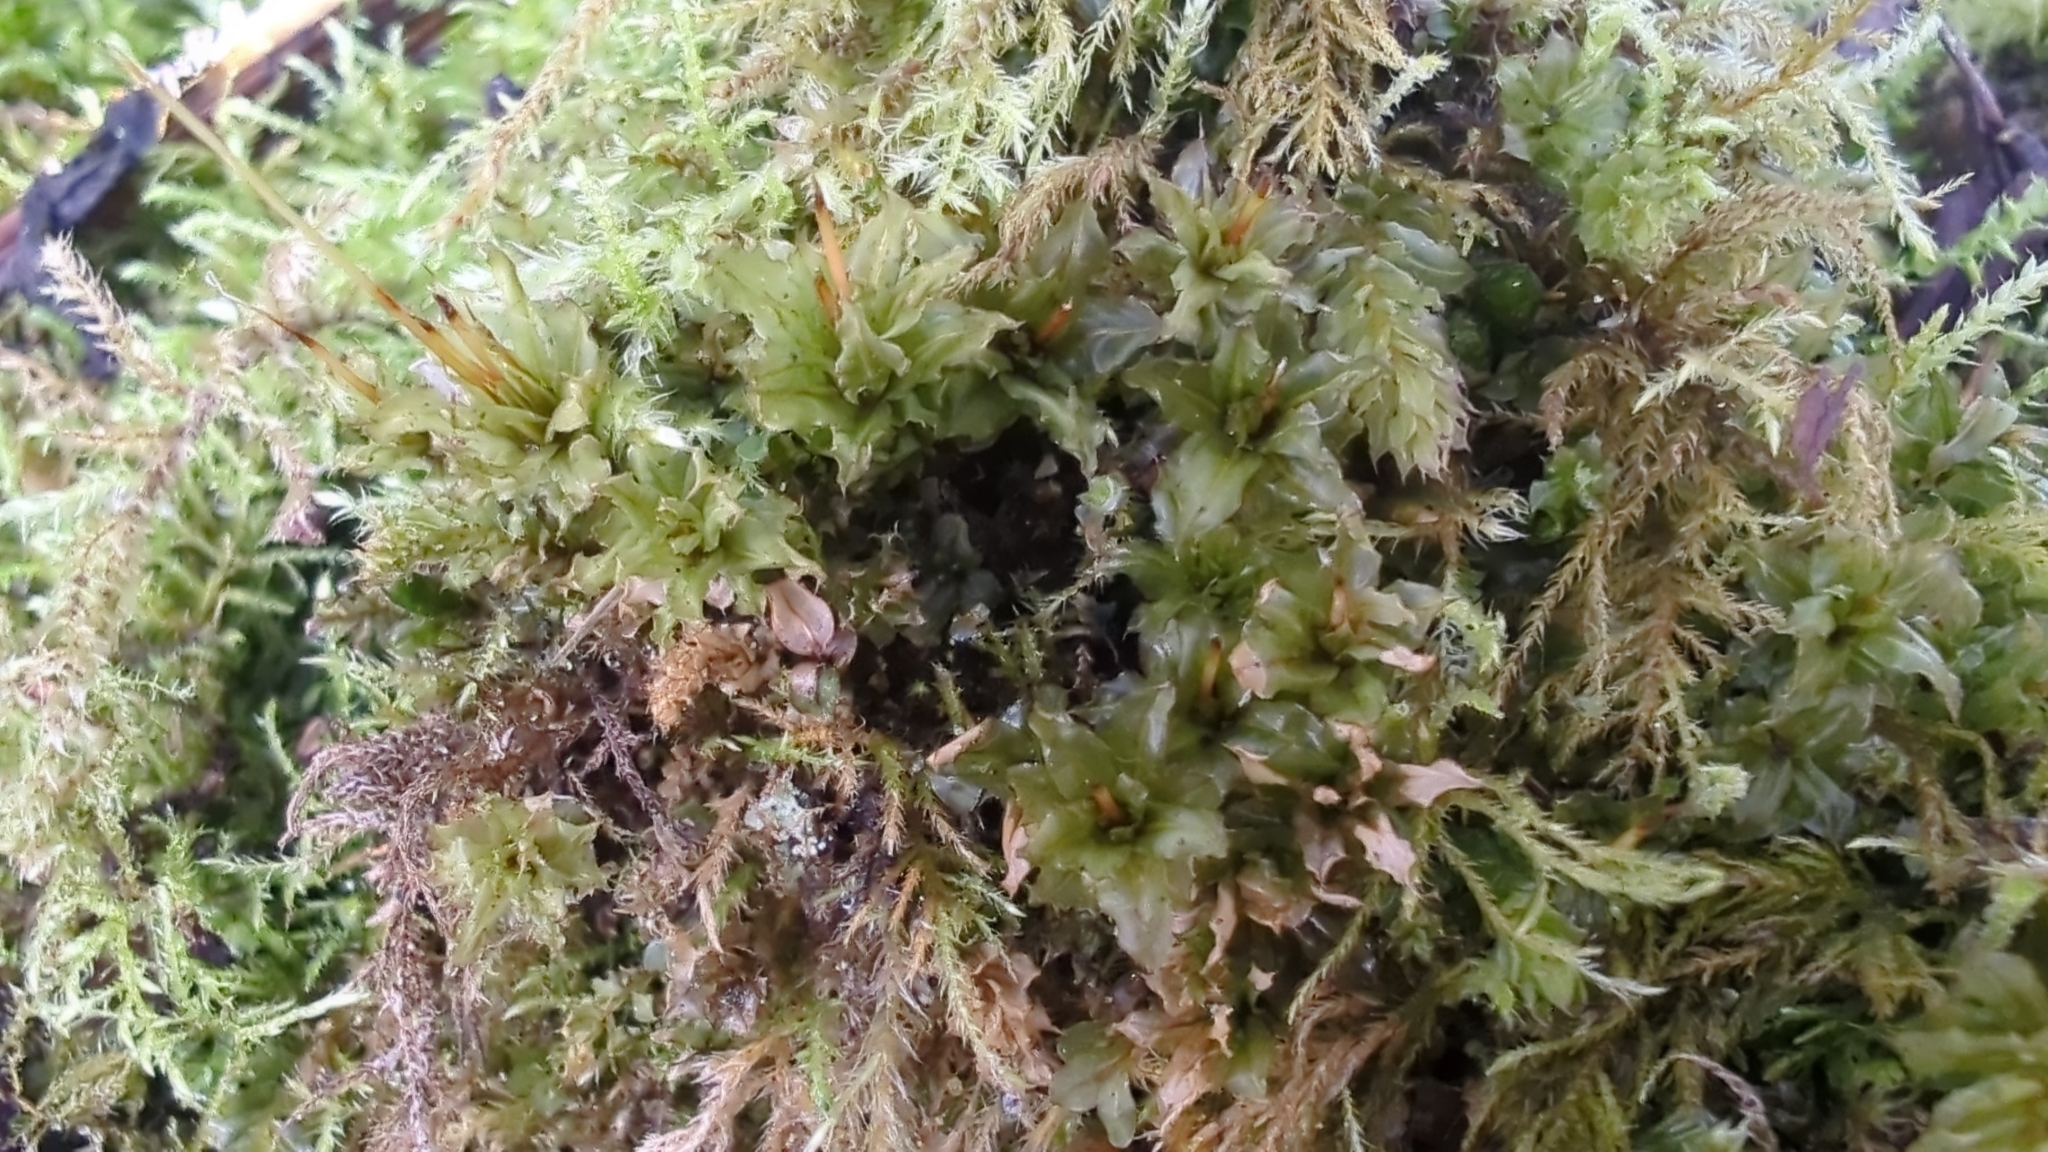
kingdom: Plantae
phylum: Bryophyta
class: Bryopsida
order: Bryales
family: Mniaceae
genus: Plagiomnium
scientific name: Plagiomnium venustum
